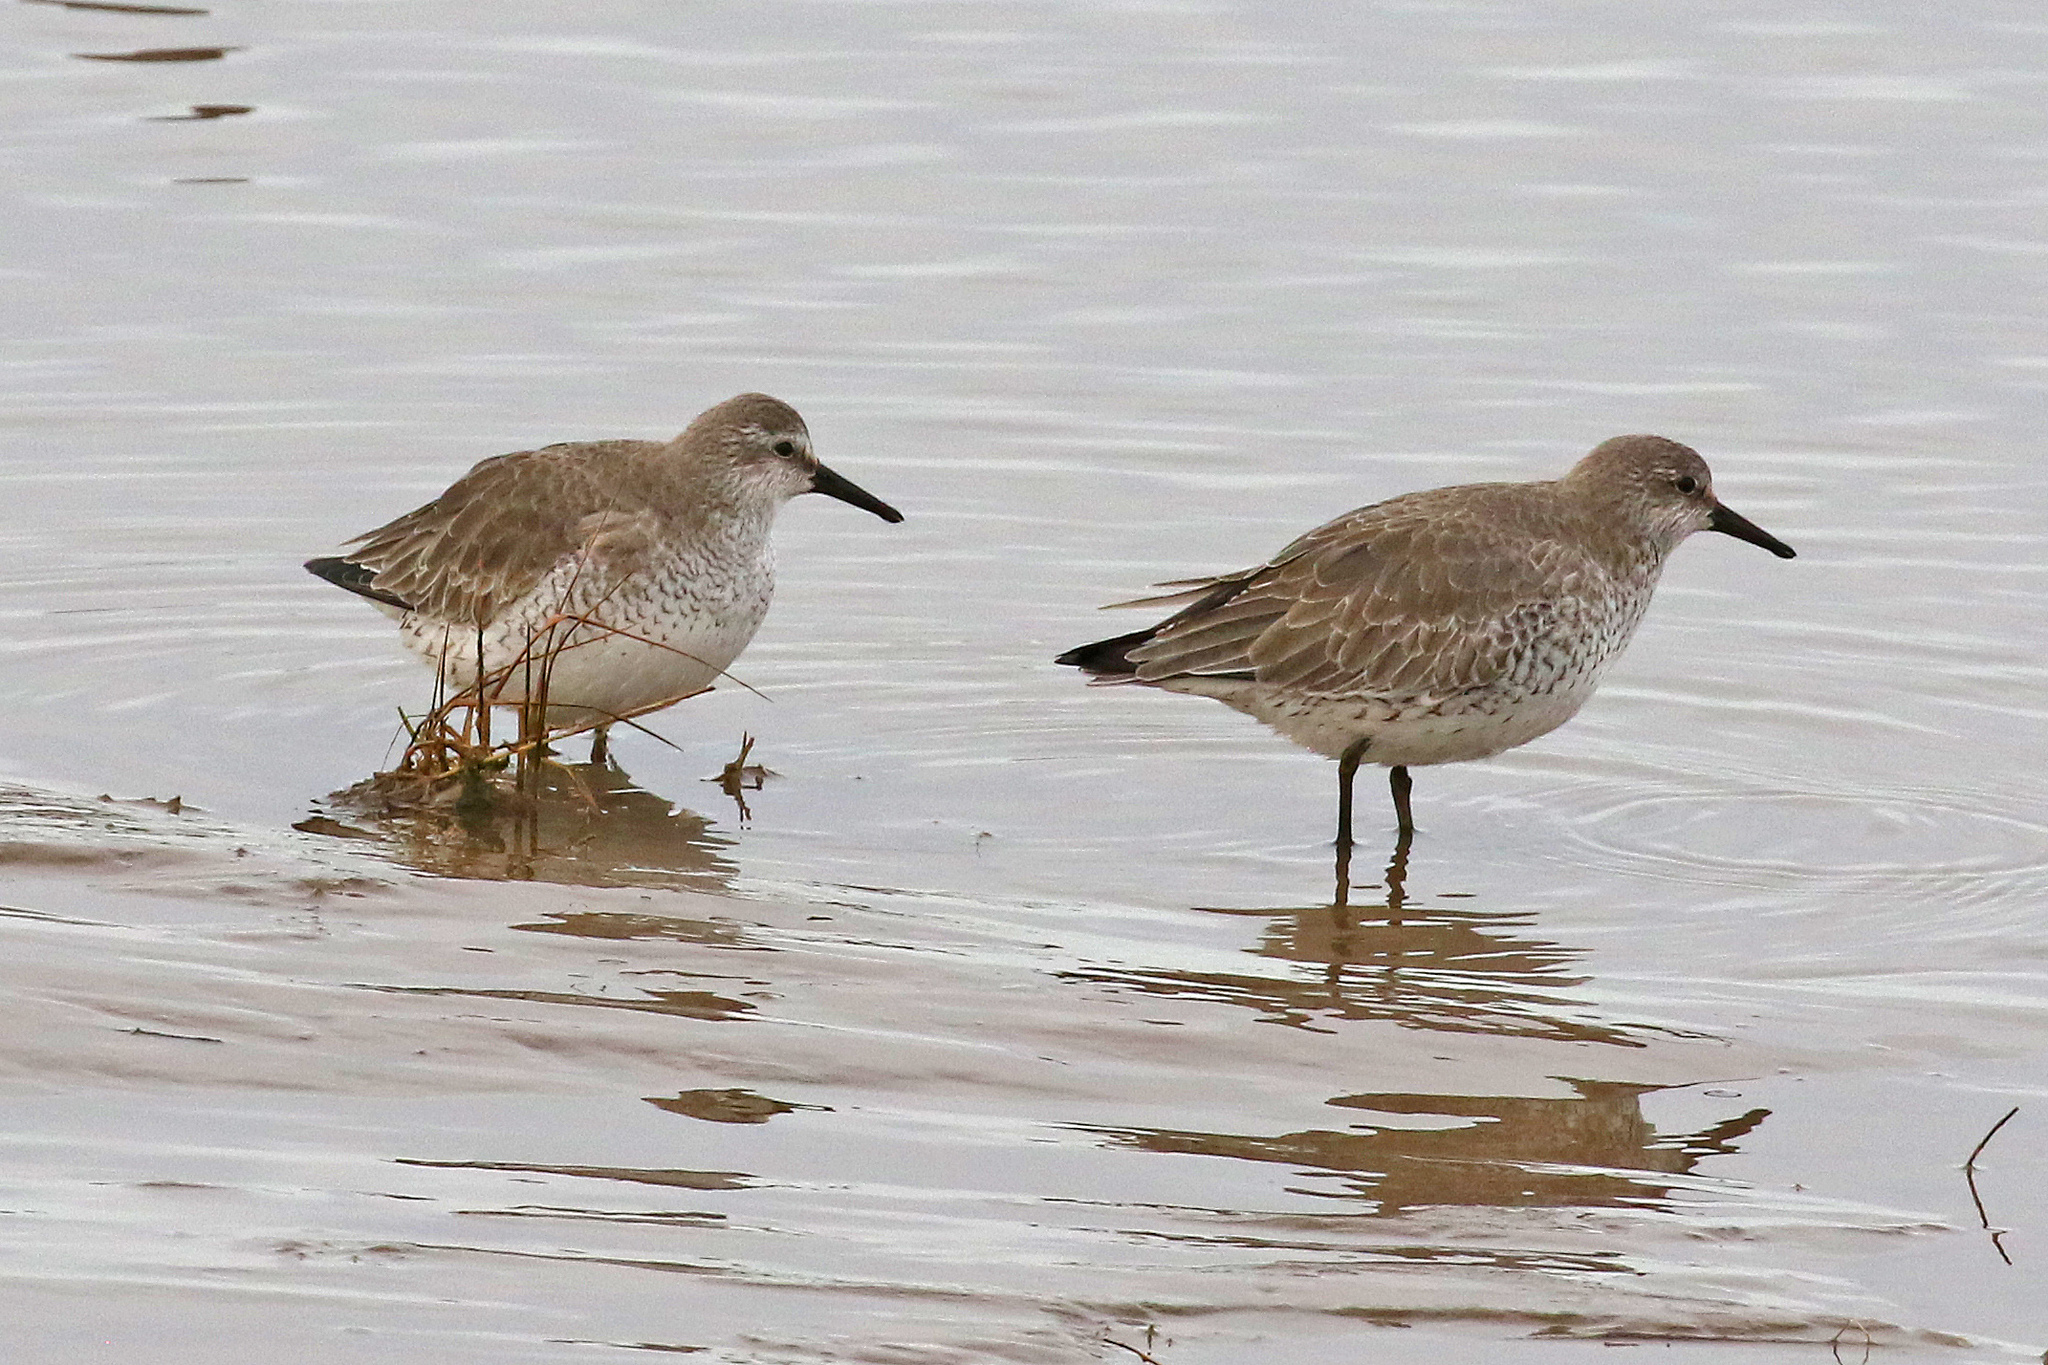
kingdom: Animalia
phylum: Chordata
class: Aves
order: Charadriiformes
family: Scolopacidae
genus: Calidris
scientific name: Calidris canutus
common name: Red knot
